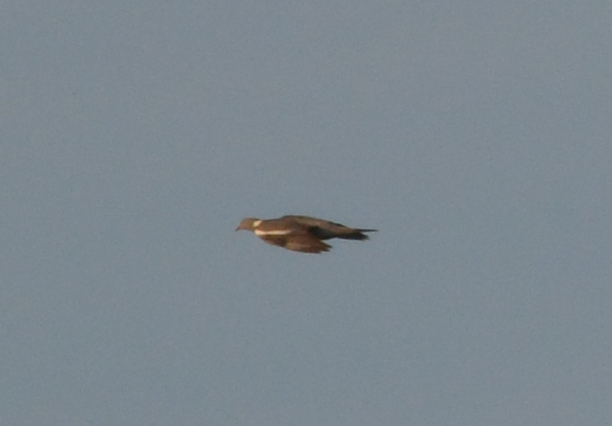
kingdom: Animalia
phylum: Chordata
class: Aves
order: Columbiformes
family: Columbidae
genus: Columba
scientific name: Columba palumbus
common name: Common wood pigeon
